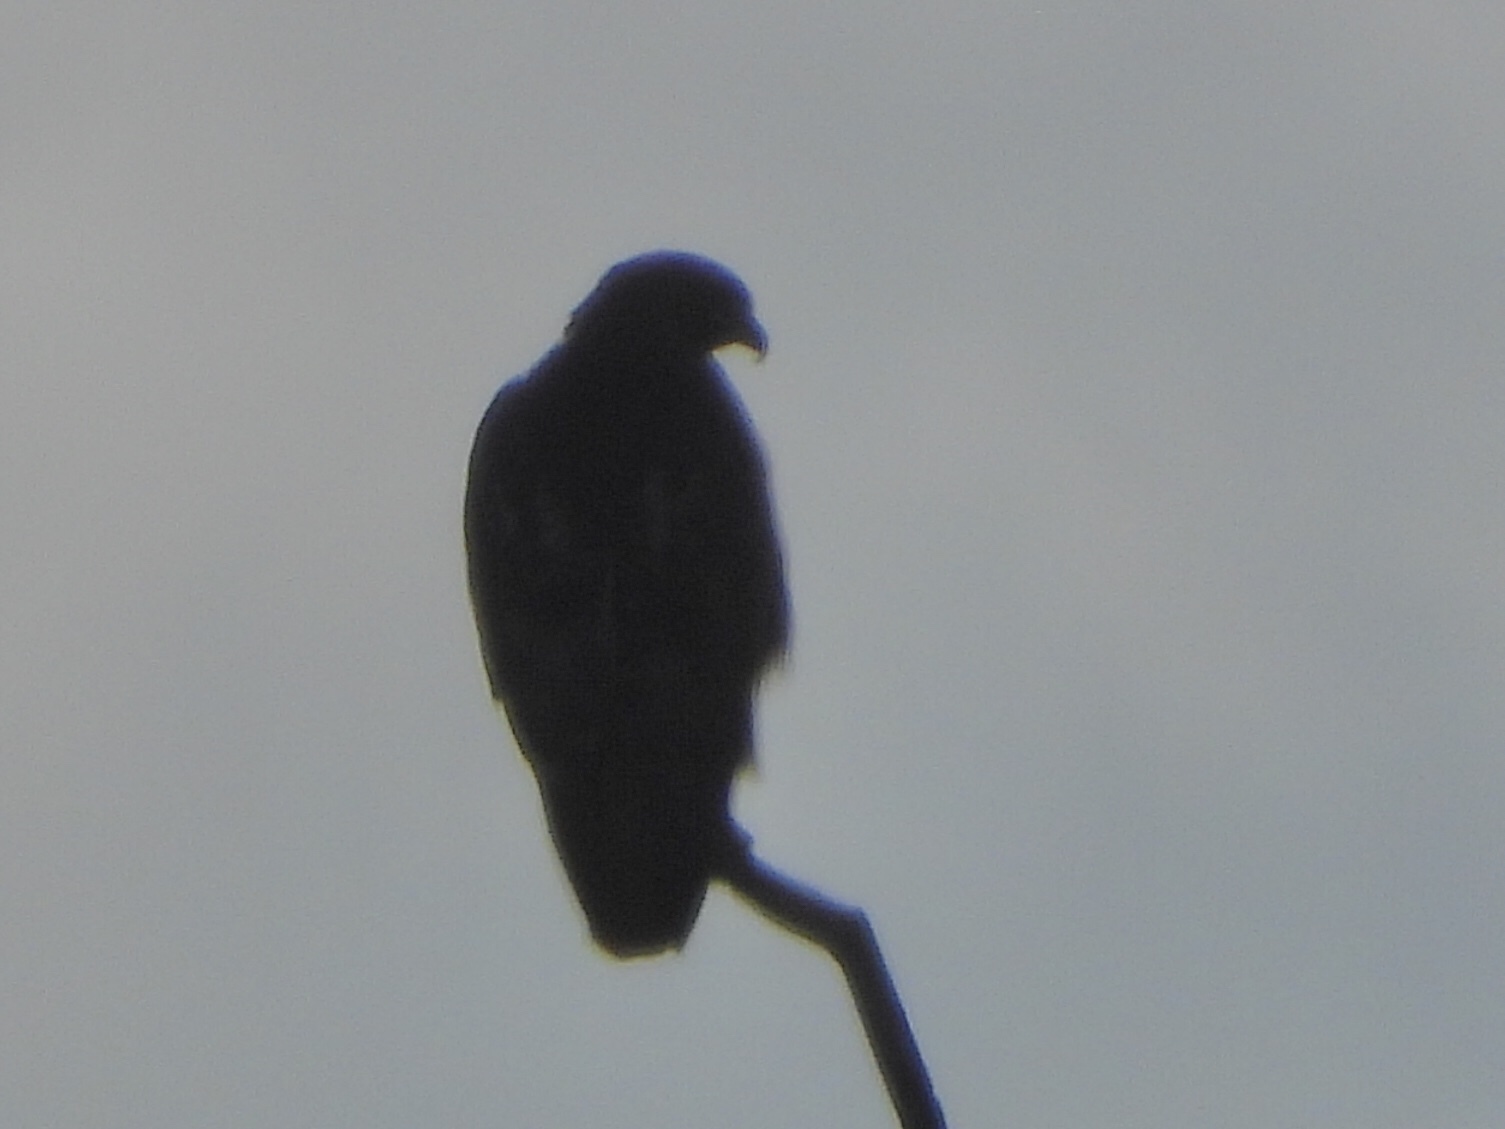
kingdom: Animalia
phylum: Chordata
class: Aves
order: Accipitriformes
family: Accipitridae
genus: Buteo
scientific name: Buteo jamaicensis
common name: Red-tailed hawk
